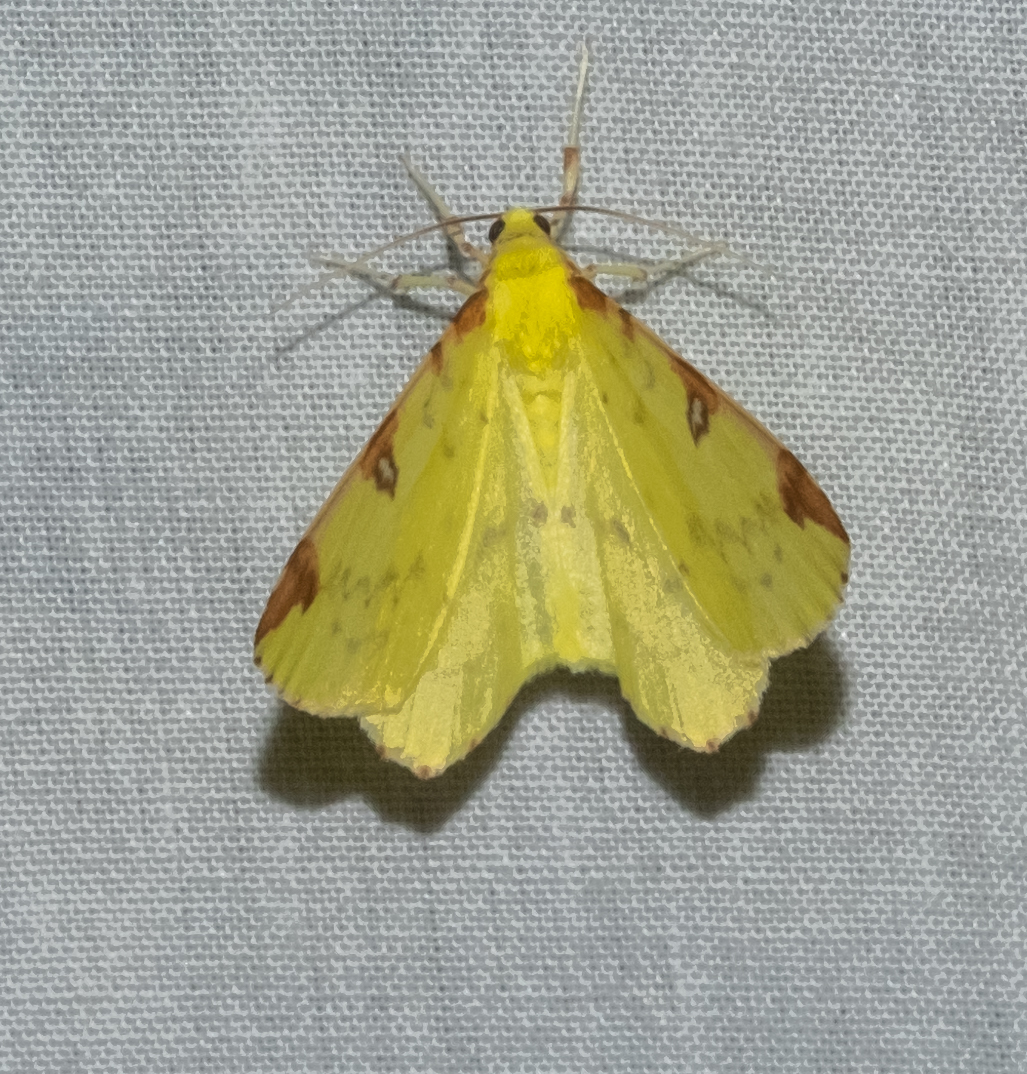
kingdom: Animalia
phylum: Arthropoda
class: Insecta
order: Lepidoptera
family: Geometridae
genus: Opisthograptis
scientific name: Opisthograptis luteolata
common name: Brimstone moth
